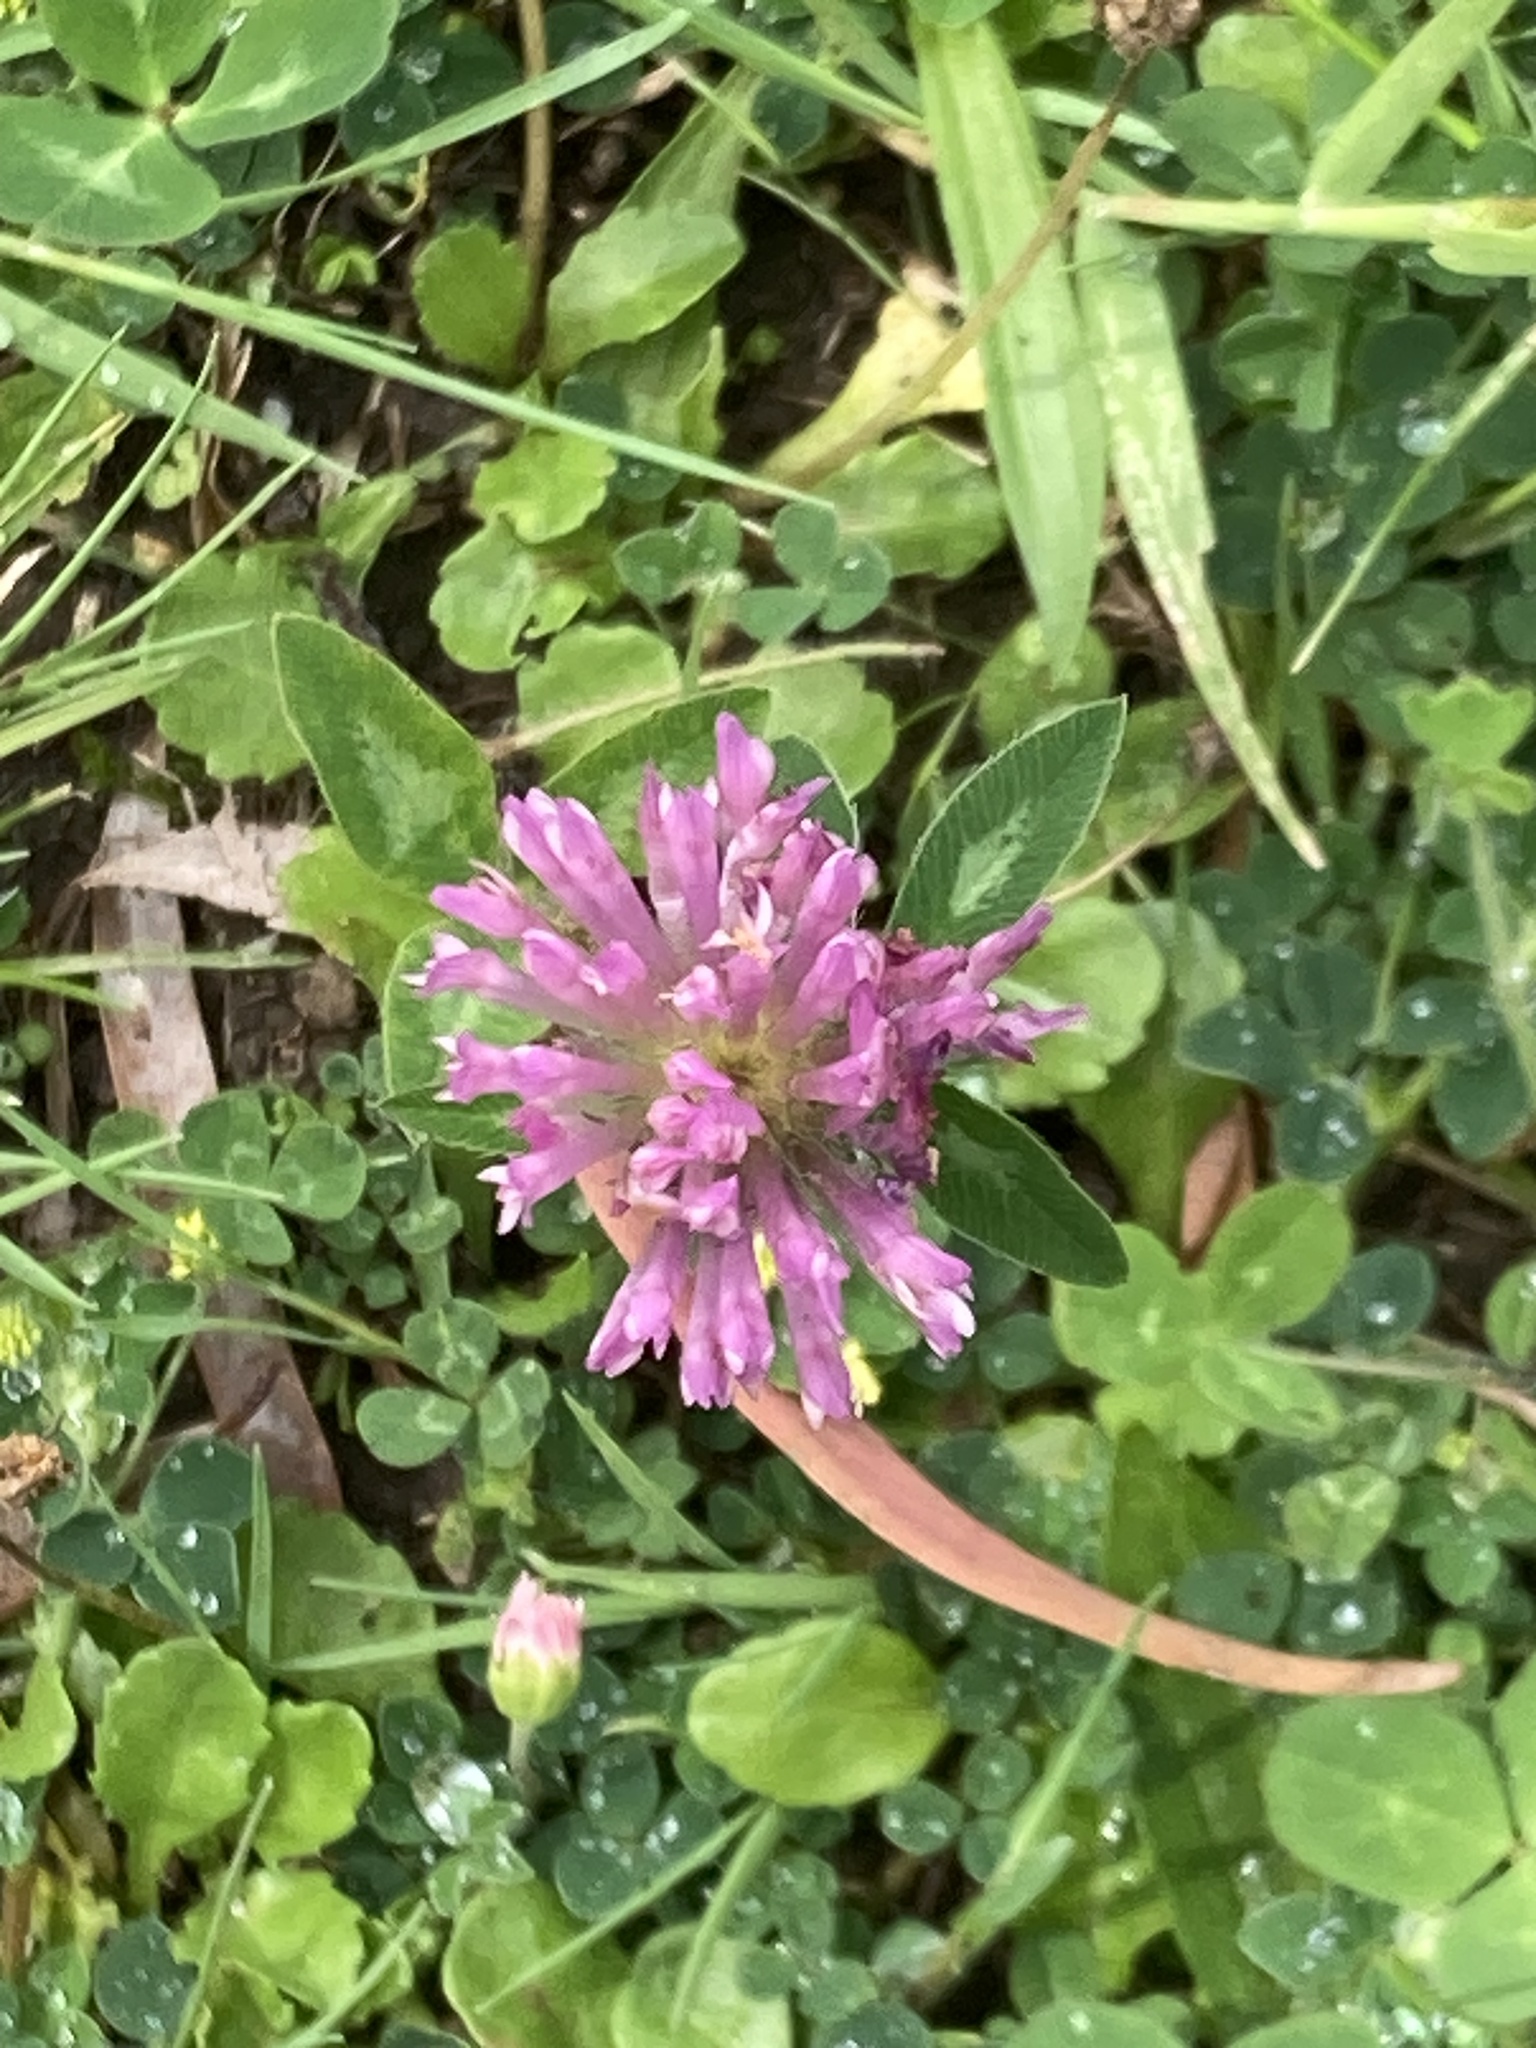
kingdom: Plantae
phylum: Tracheophyta
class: Magnoliopsida
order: Fabales
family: Fabaceae
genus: Trifolium
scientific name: Trifolium pratense
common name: Red clover
